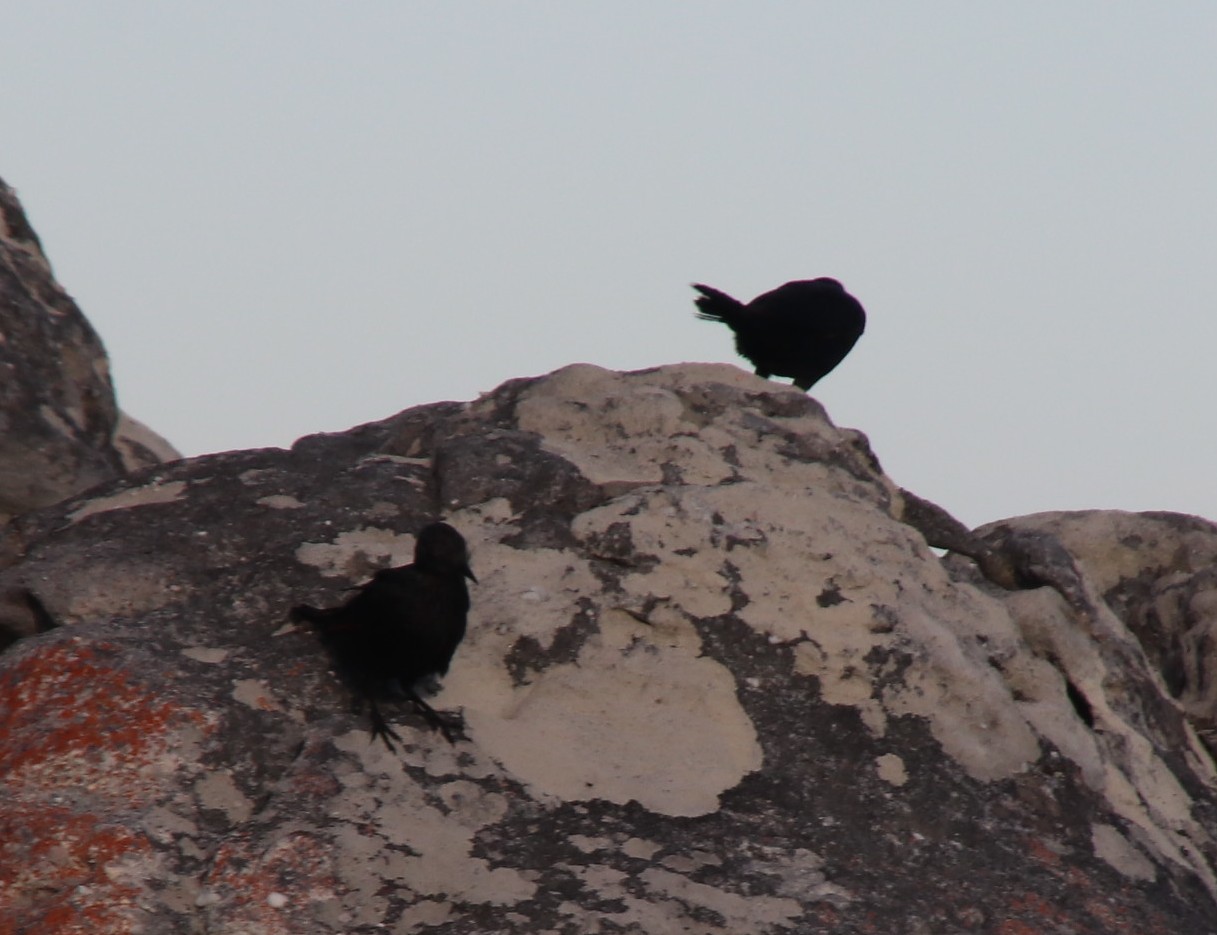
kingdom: Animalia
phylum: Chordata
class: Aves
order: Passeriformes
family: Sturnidae
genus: Onychognathus
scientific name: Onychognathus morio
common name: Red-winged starling
